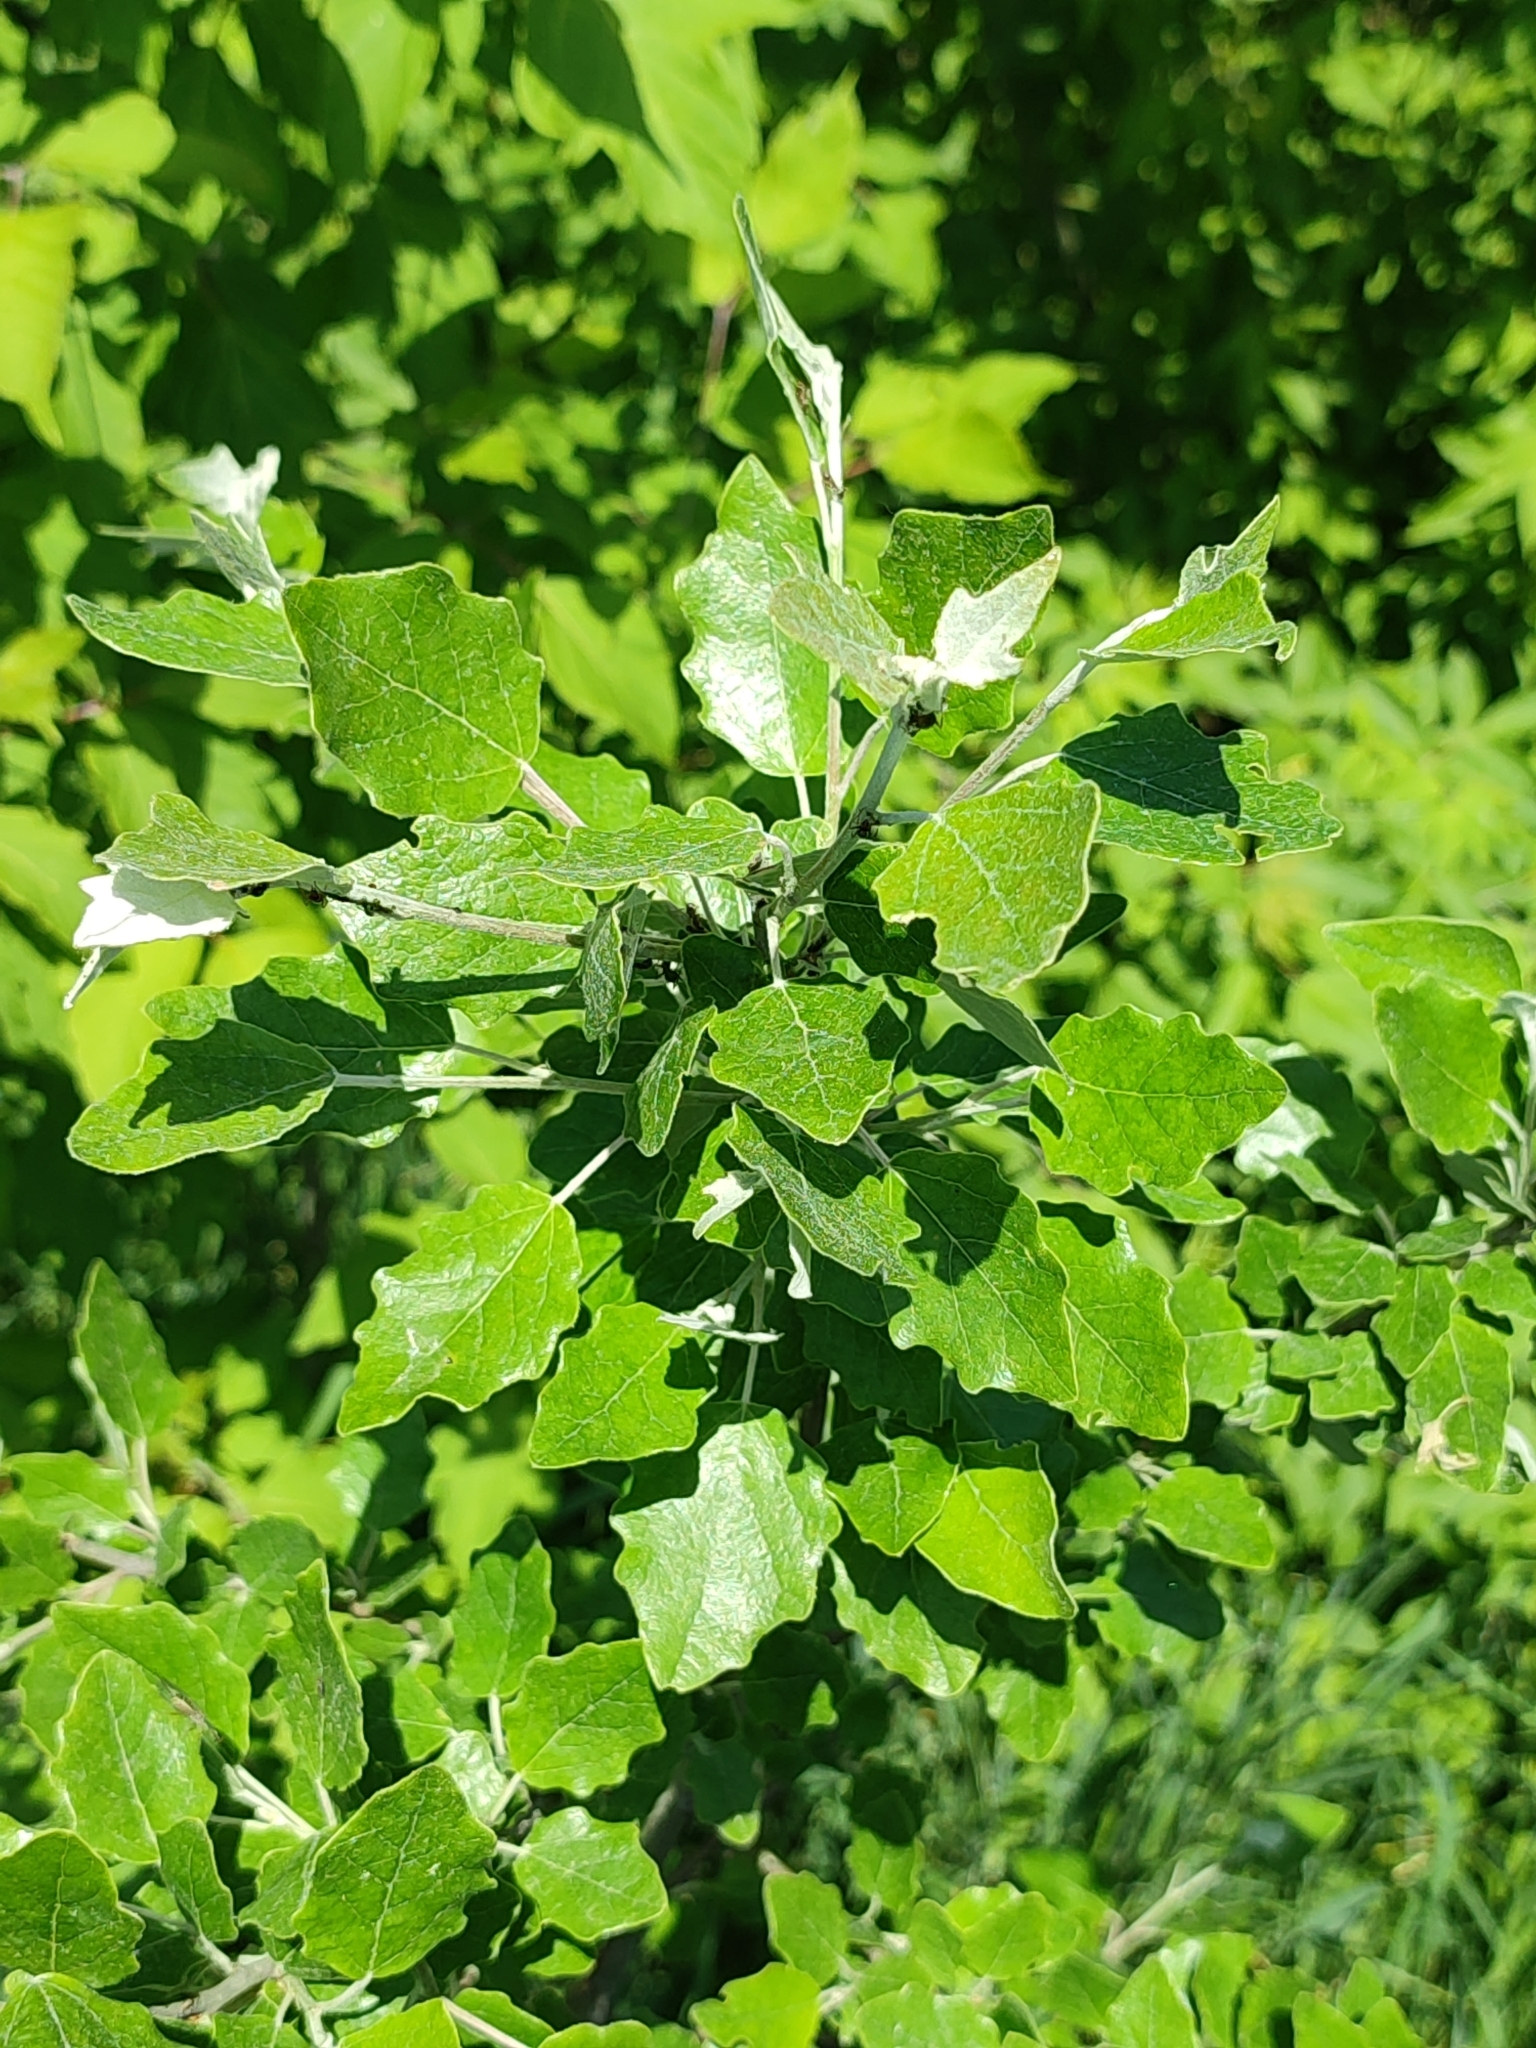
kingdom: Plantae
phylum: Tracheophyta
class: Magnoliopsida
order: Malpighiales
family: Salicaceae
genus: Populus
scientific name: Populus canescens
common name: Gray poplar
